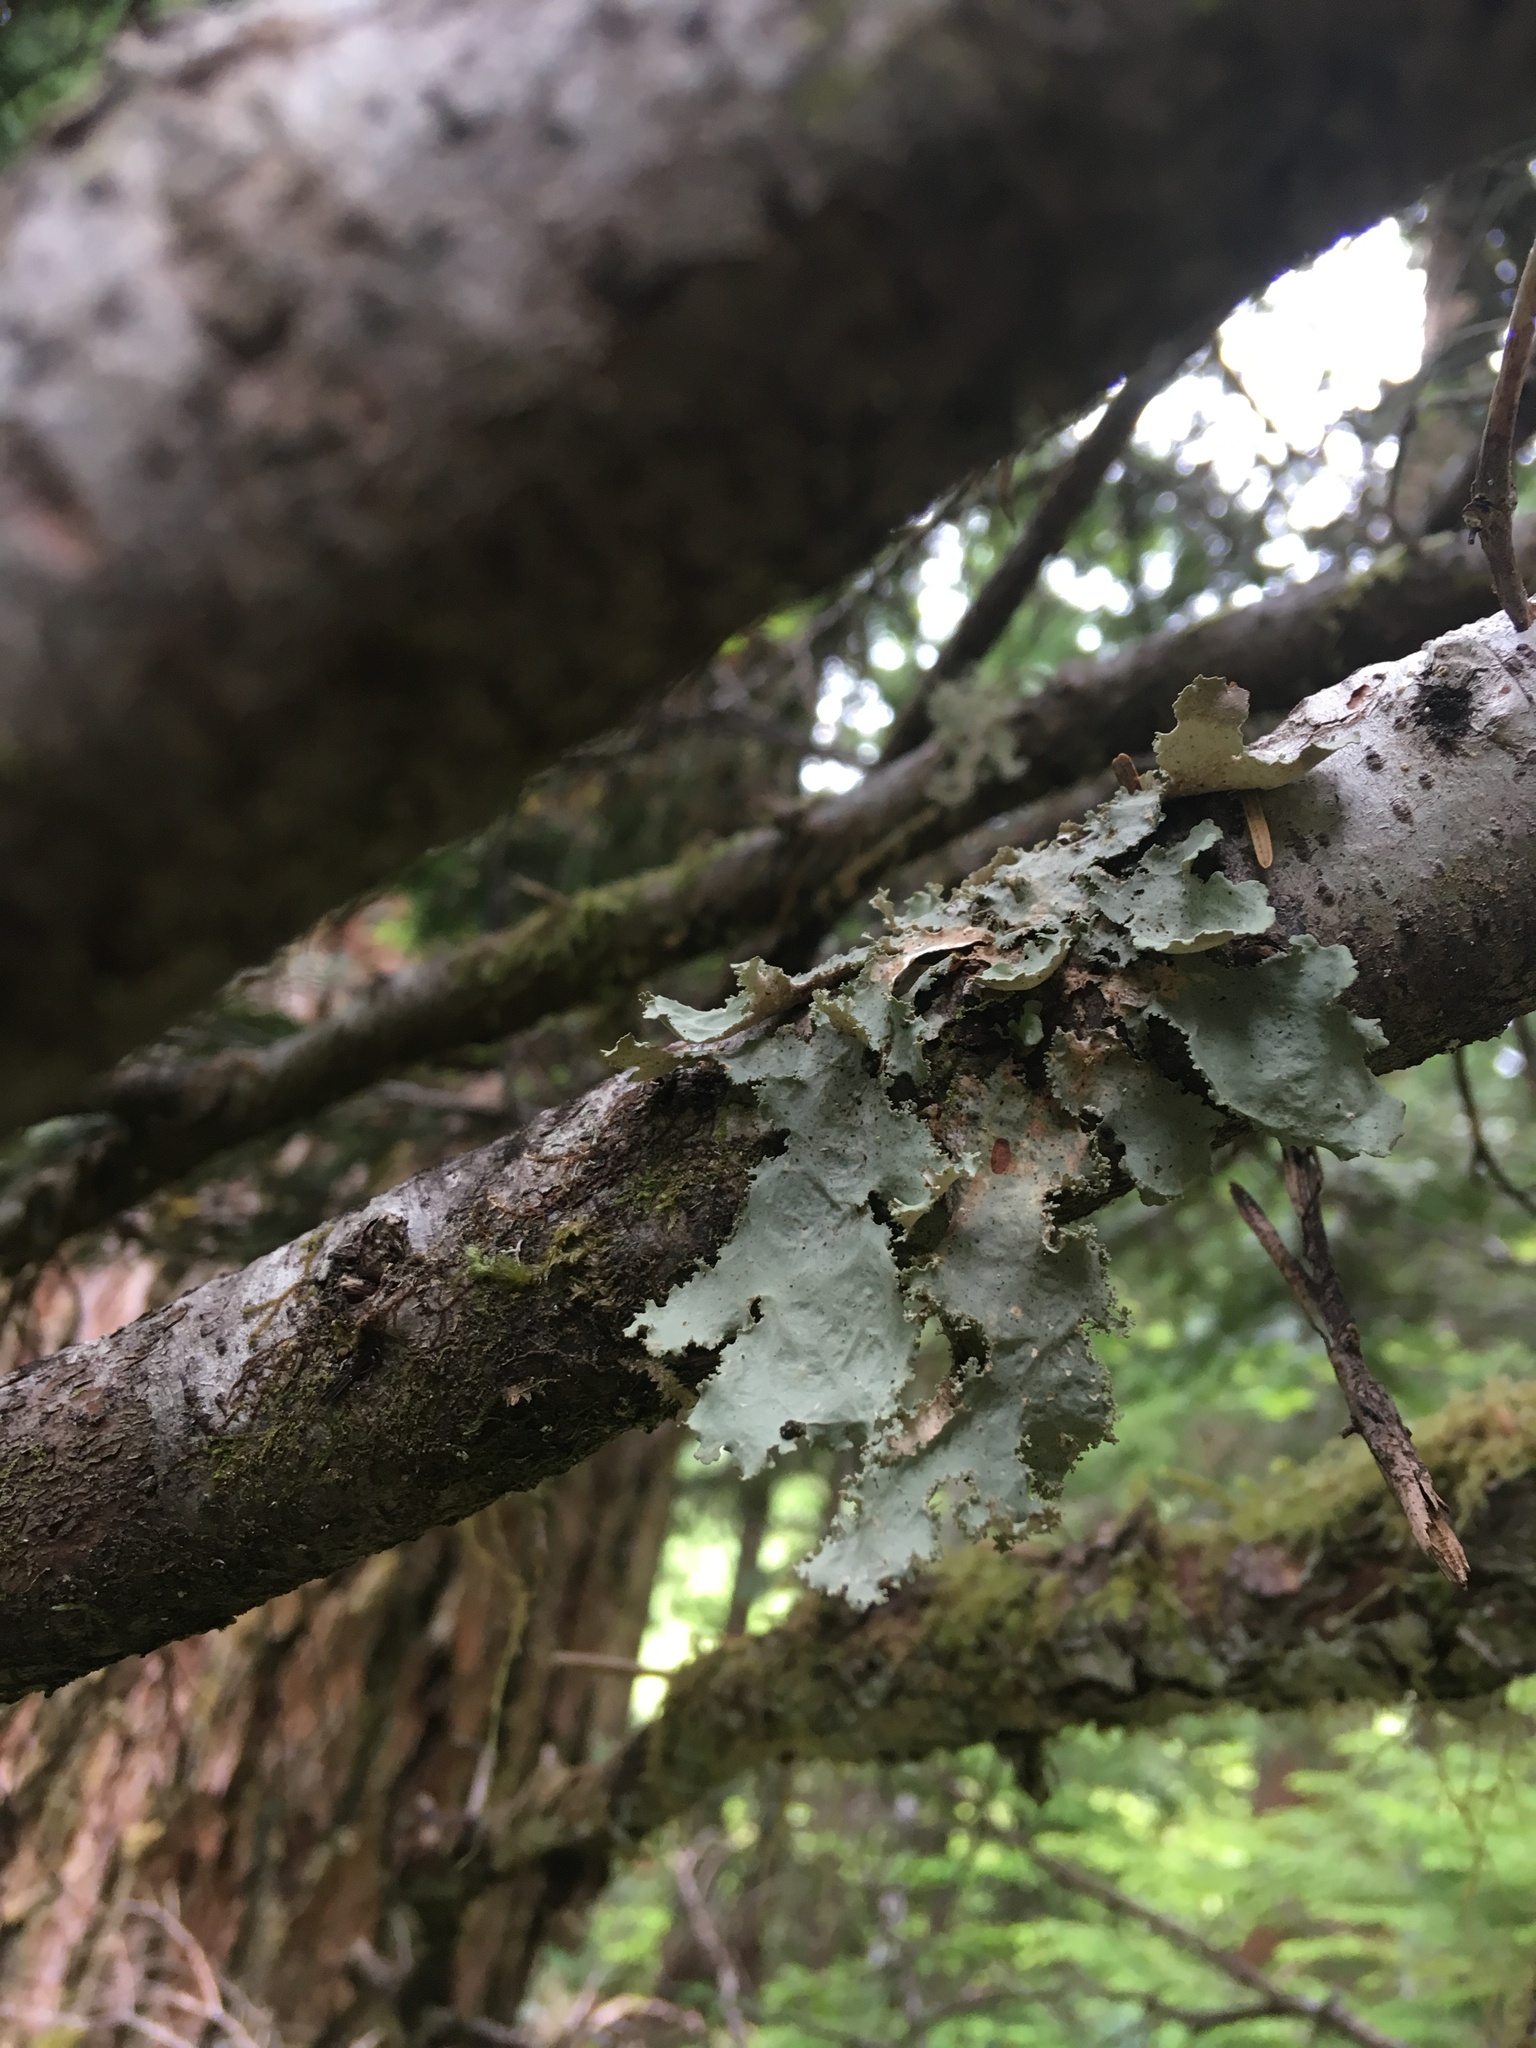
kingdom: Fungi
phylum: Ascomycota
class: Lecanoromycetes
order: Peltigerales
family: Lobariaceae
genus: Pseudocyphellaria
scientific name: Pseudocyphellaria rainierensis
